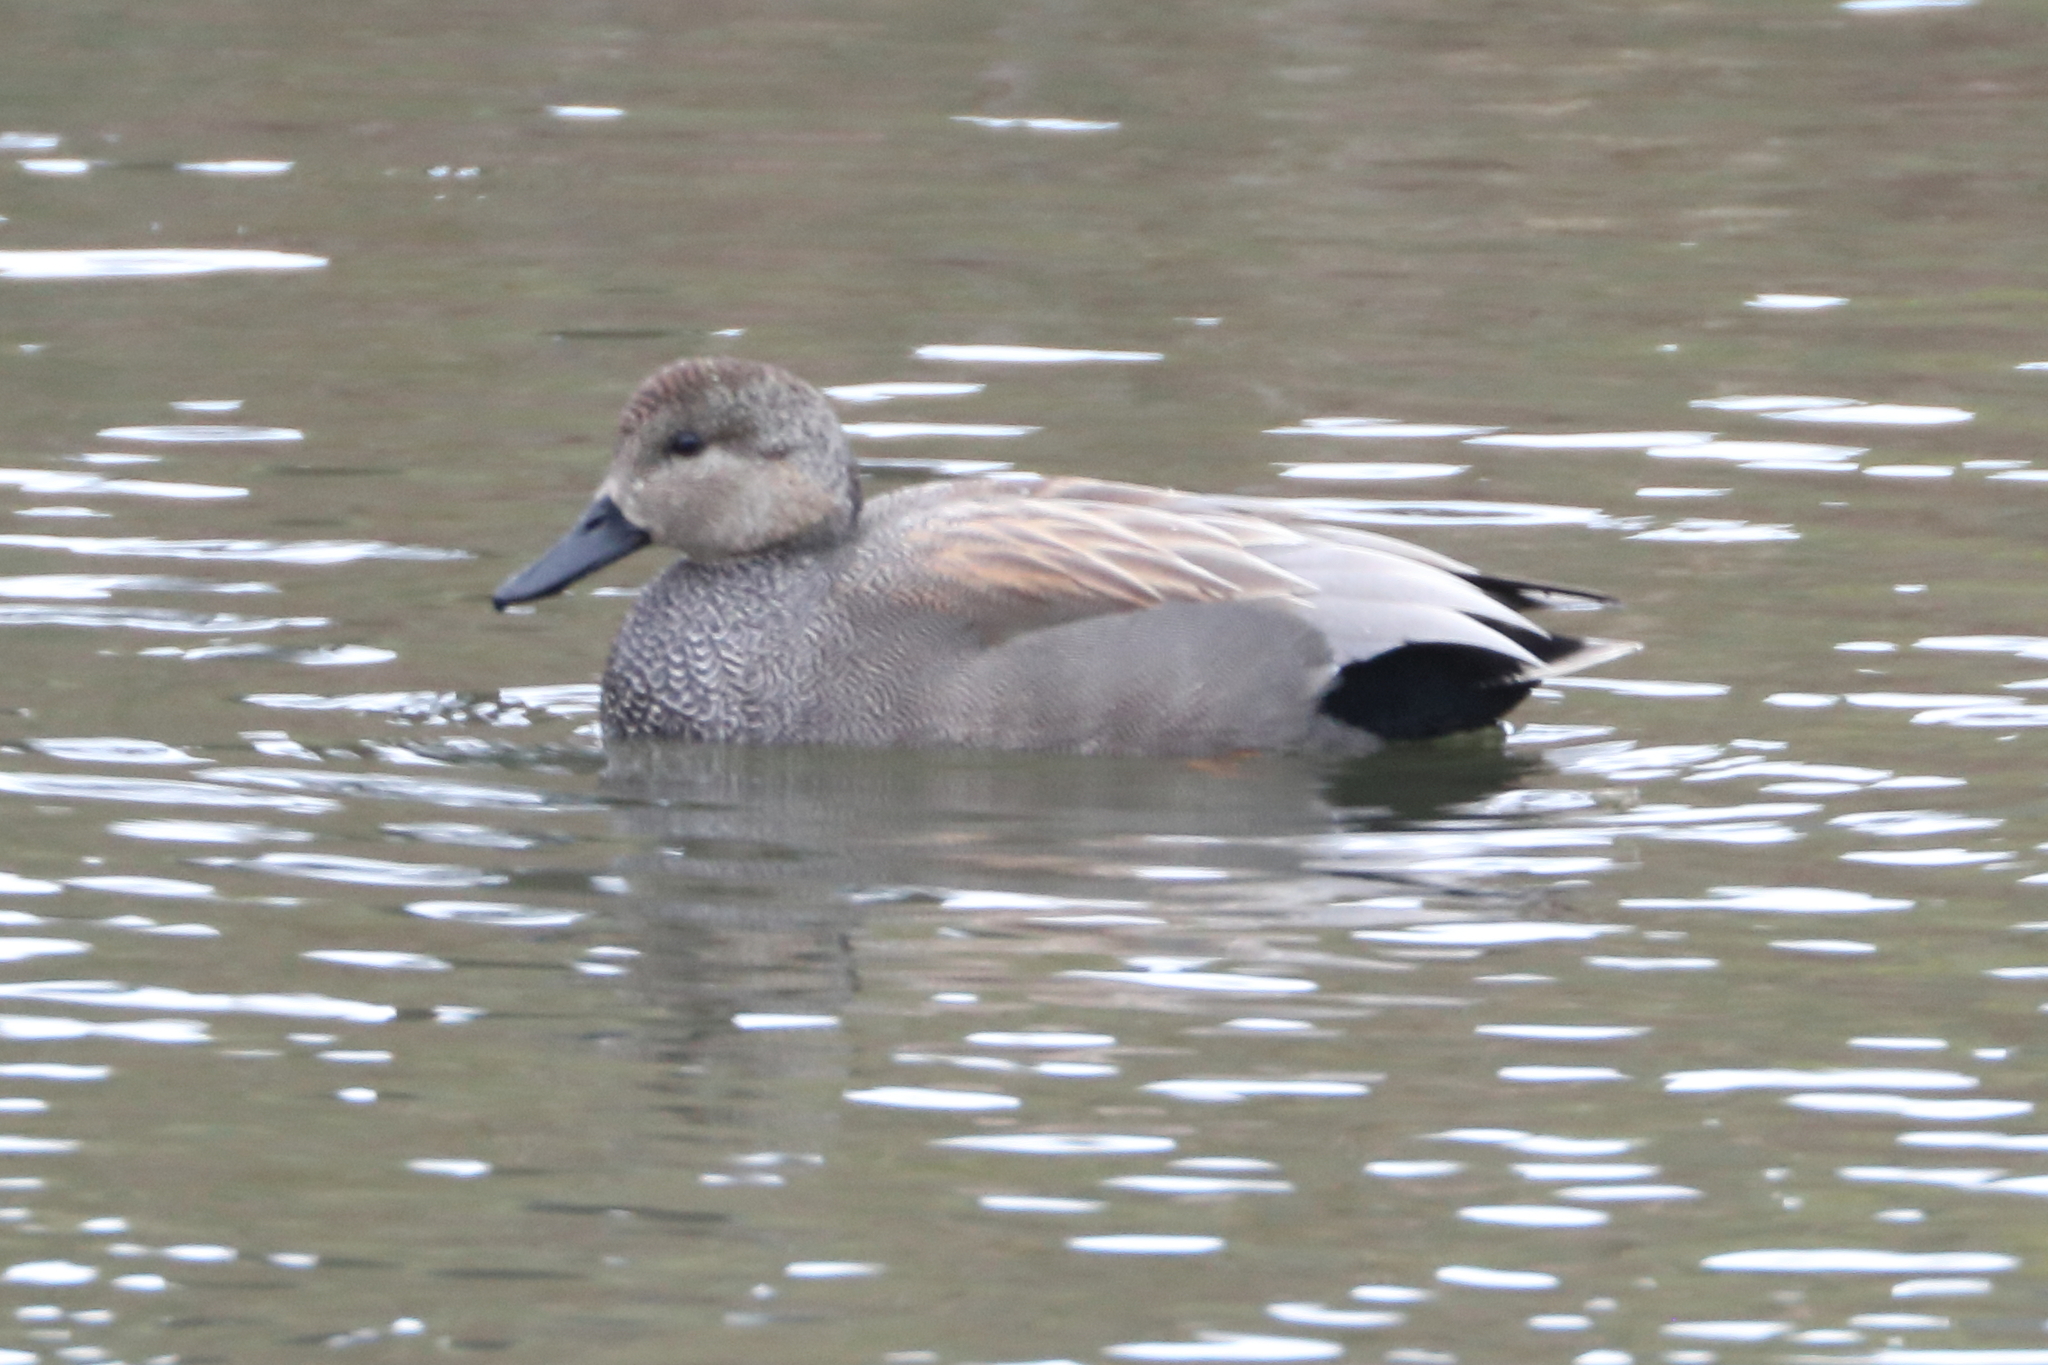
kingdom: Animalia
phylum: Chordata
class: Aves
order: Anseriformes
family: Anatidae
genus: Mareca
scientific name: Mareca strepera
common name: Gadwall
